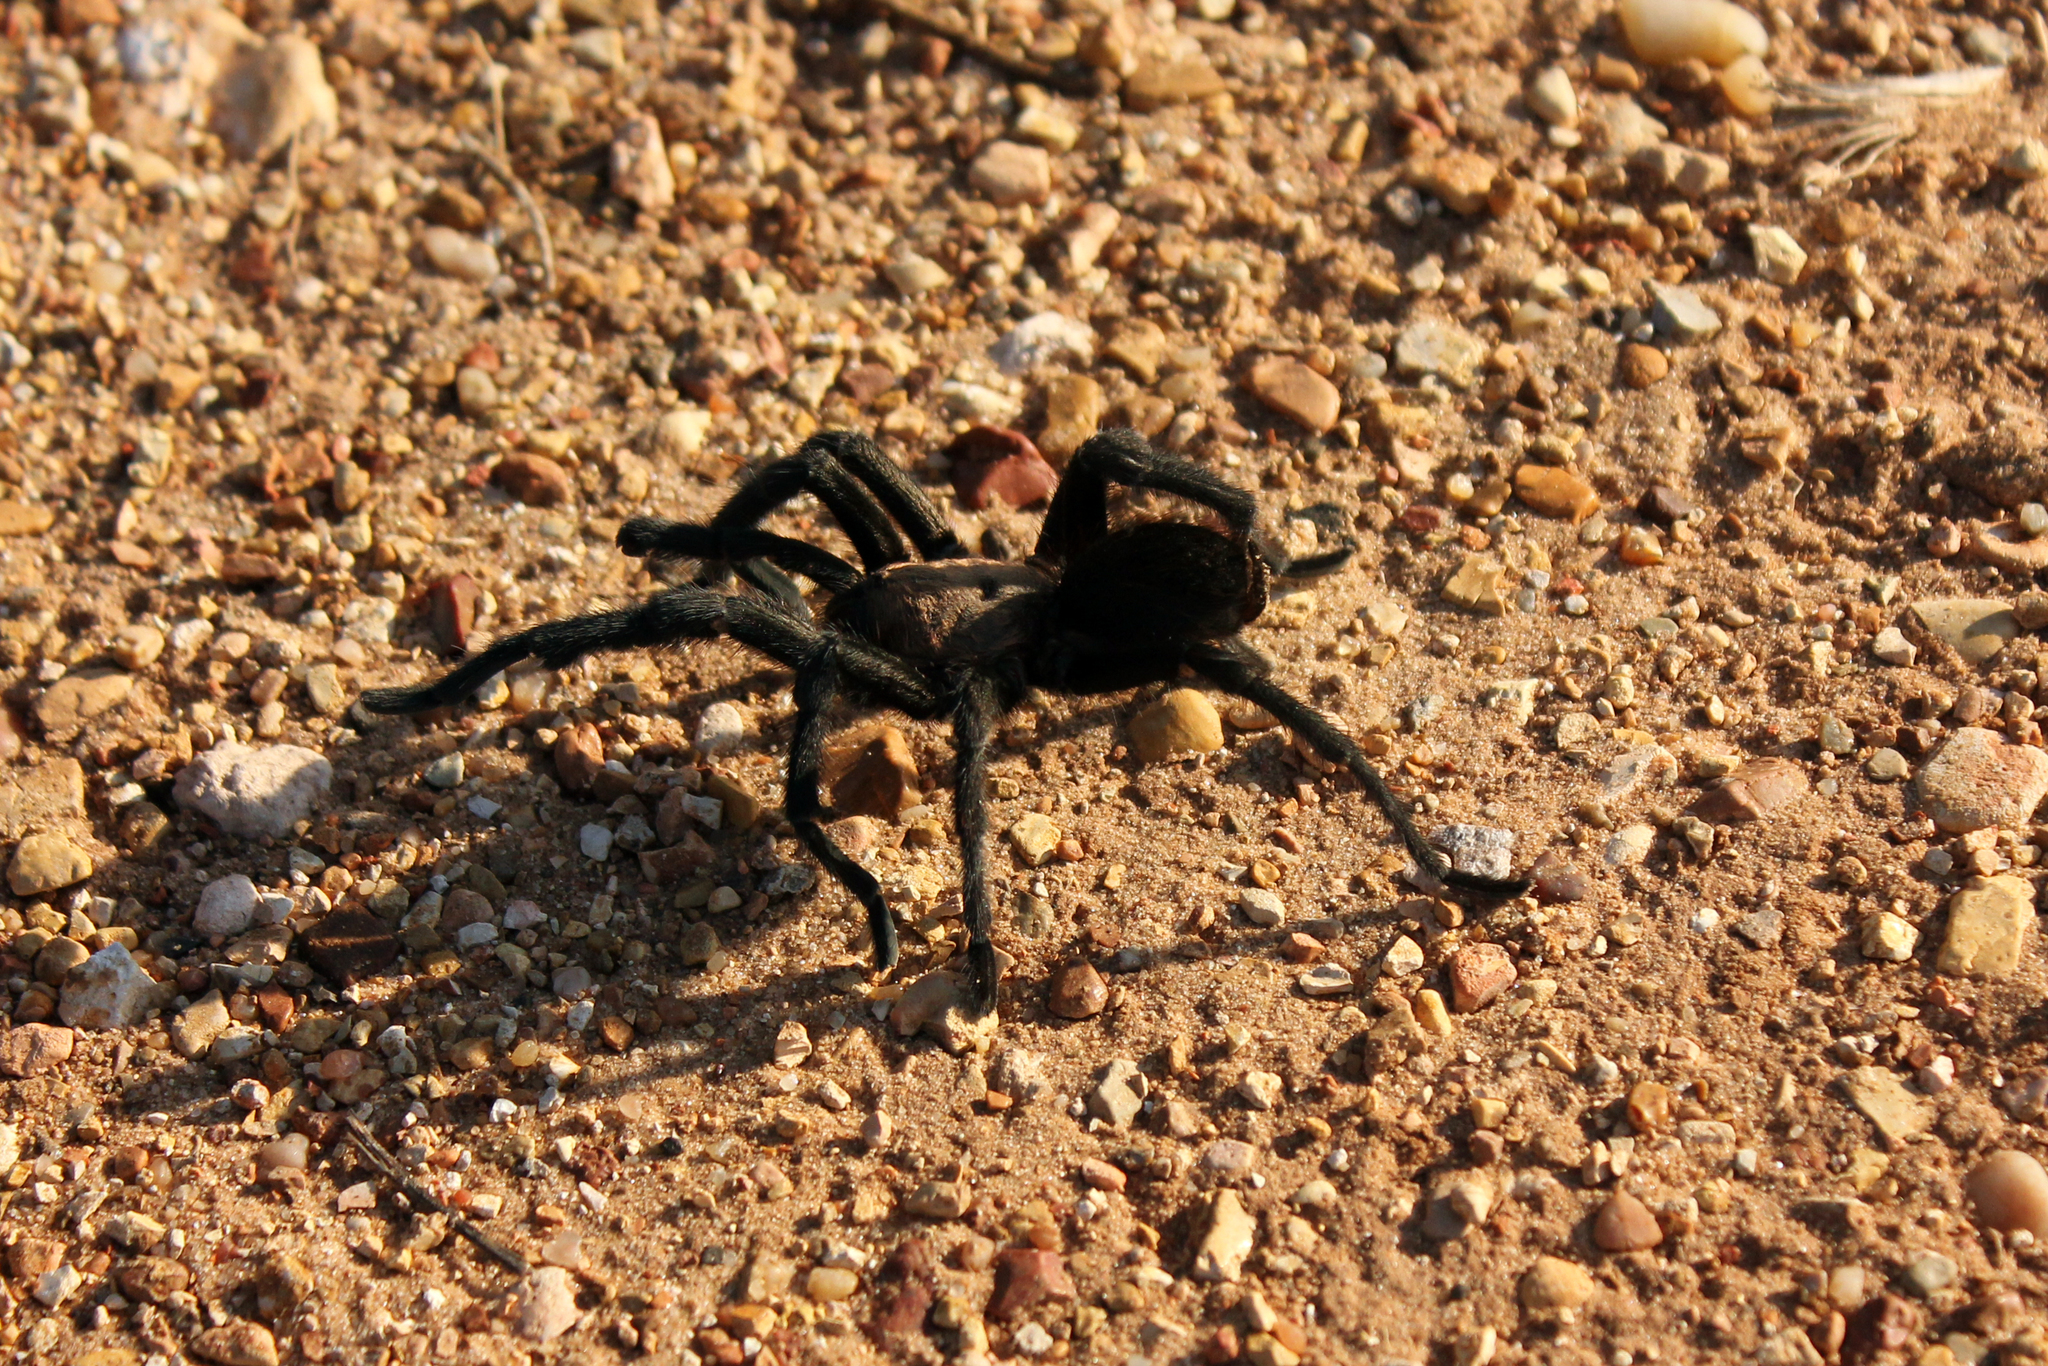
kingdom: Animalia
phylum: Arthropoda
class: Arachnida
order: Araneae
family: Theraphosidae
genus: Aphonopelma
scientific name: Aphonopelma armada
